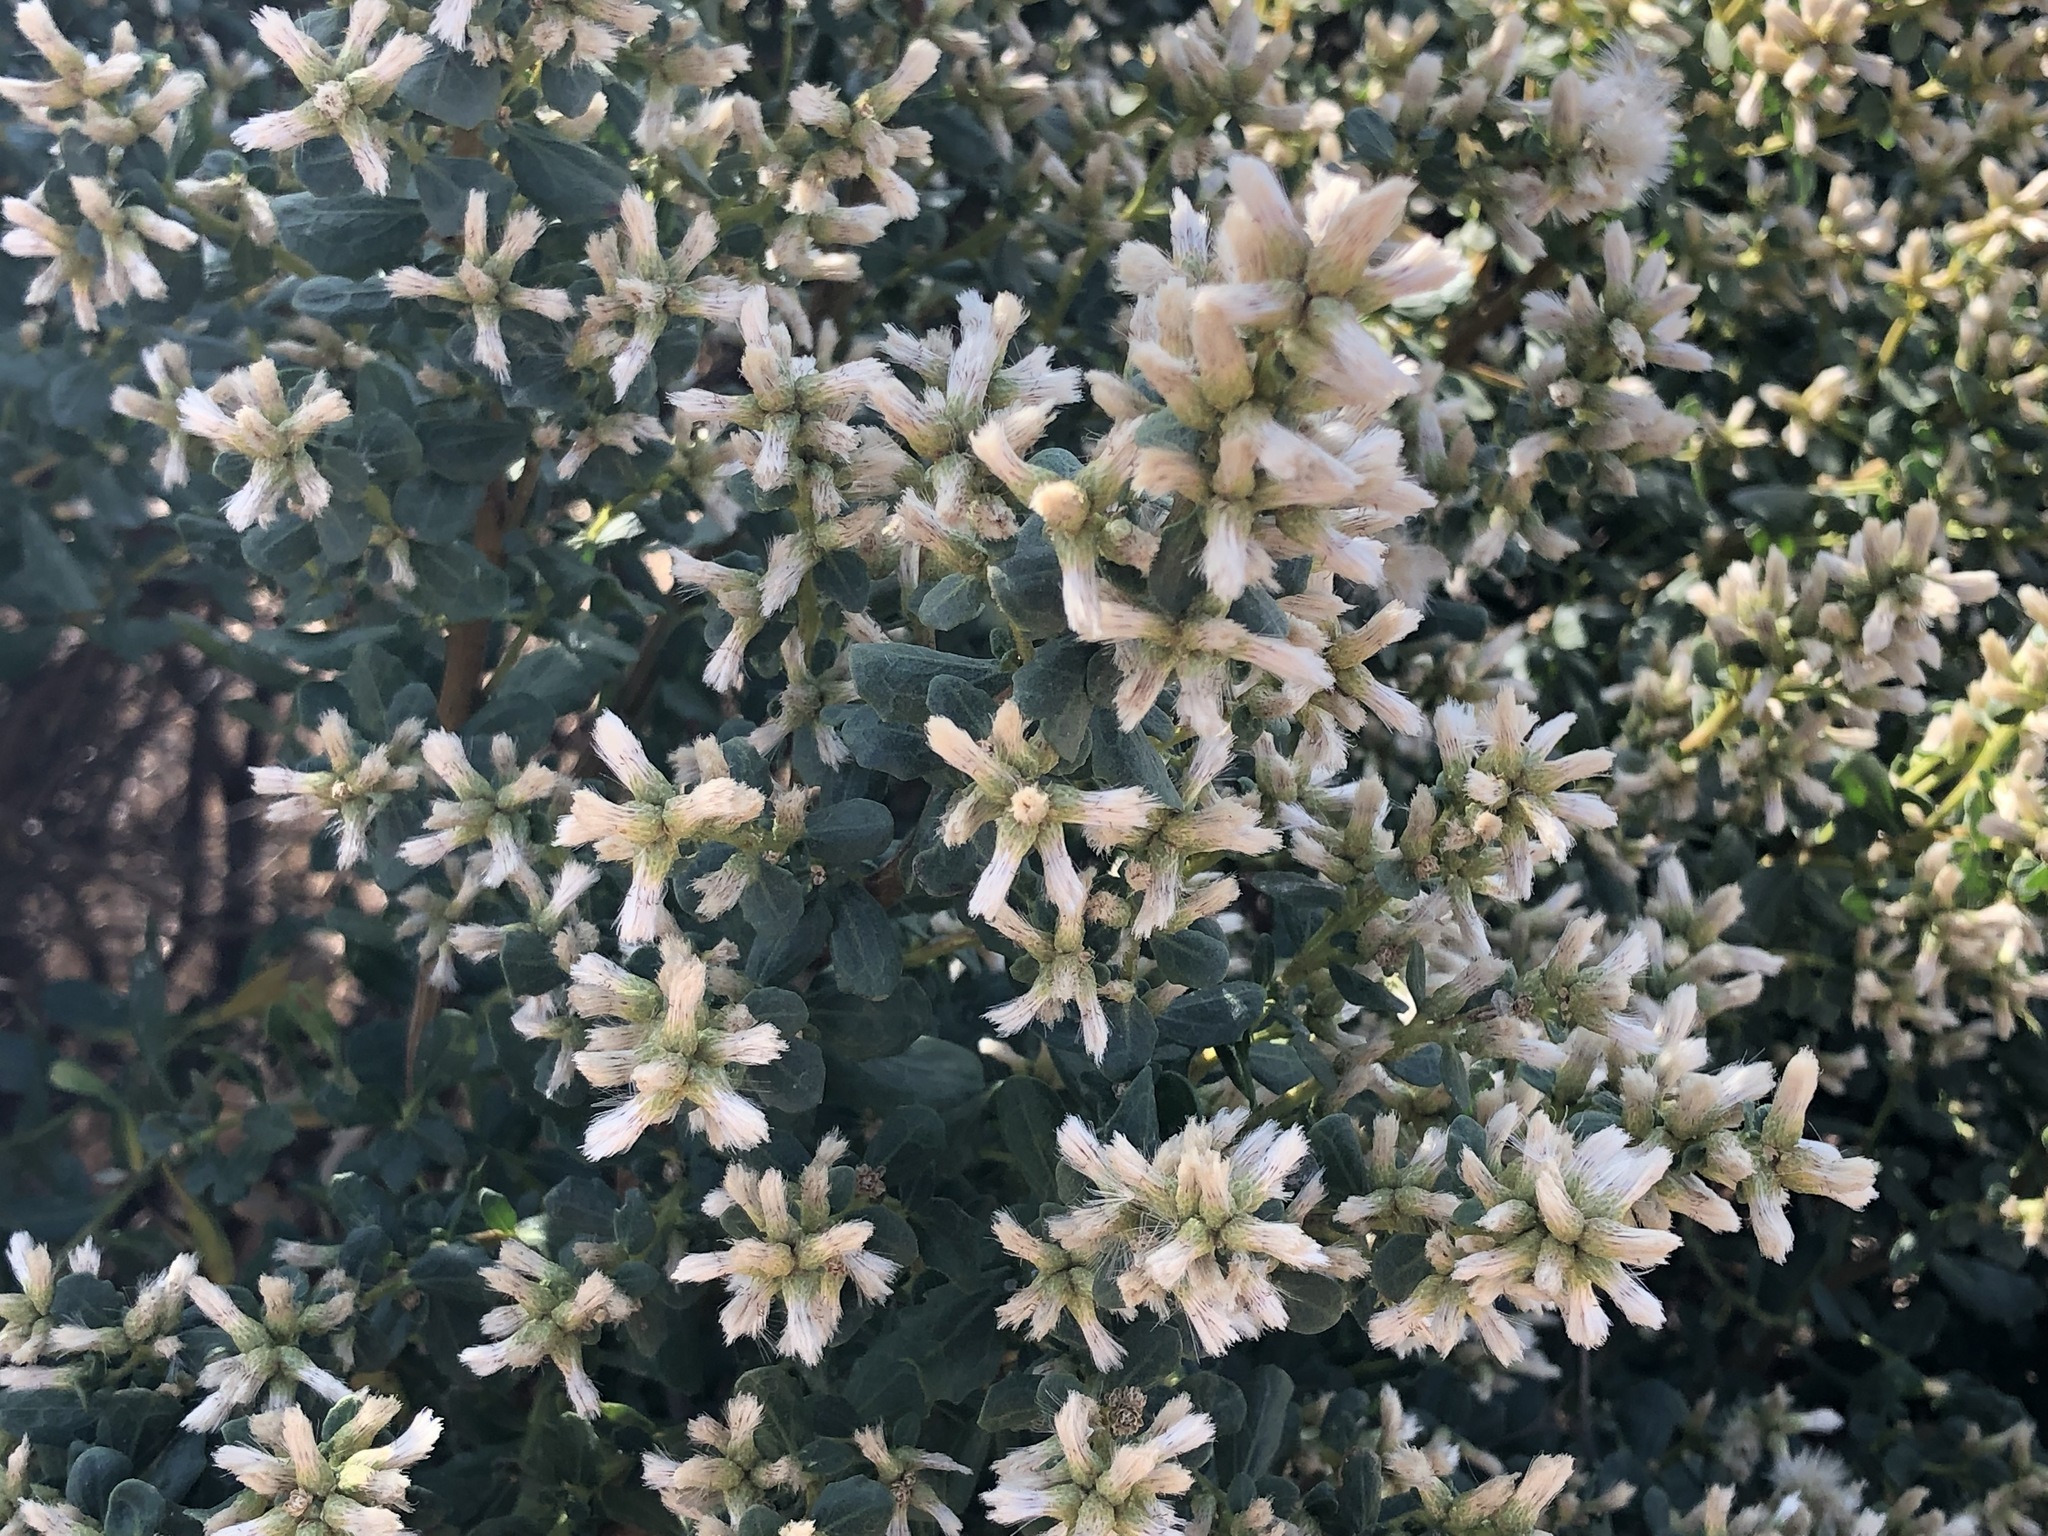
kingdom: Plantae
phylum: Tracheophyta
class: Magnoliopsida
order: Asterales
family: Asteraceae
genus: Baccharis
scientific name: Baccharis pilularis
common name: Coyotebrush
